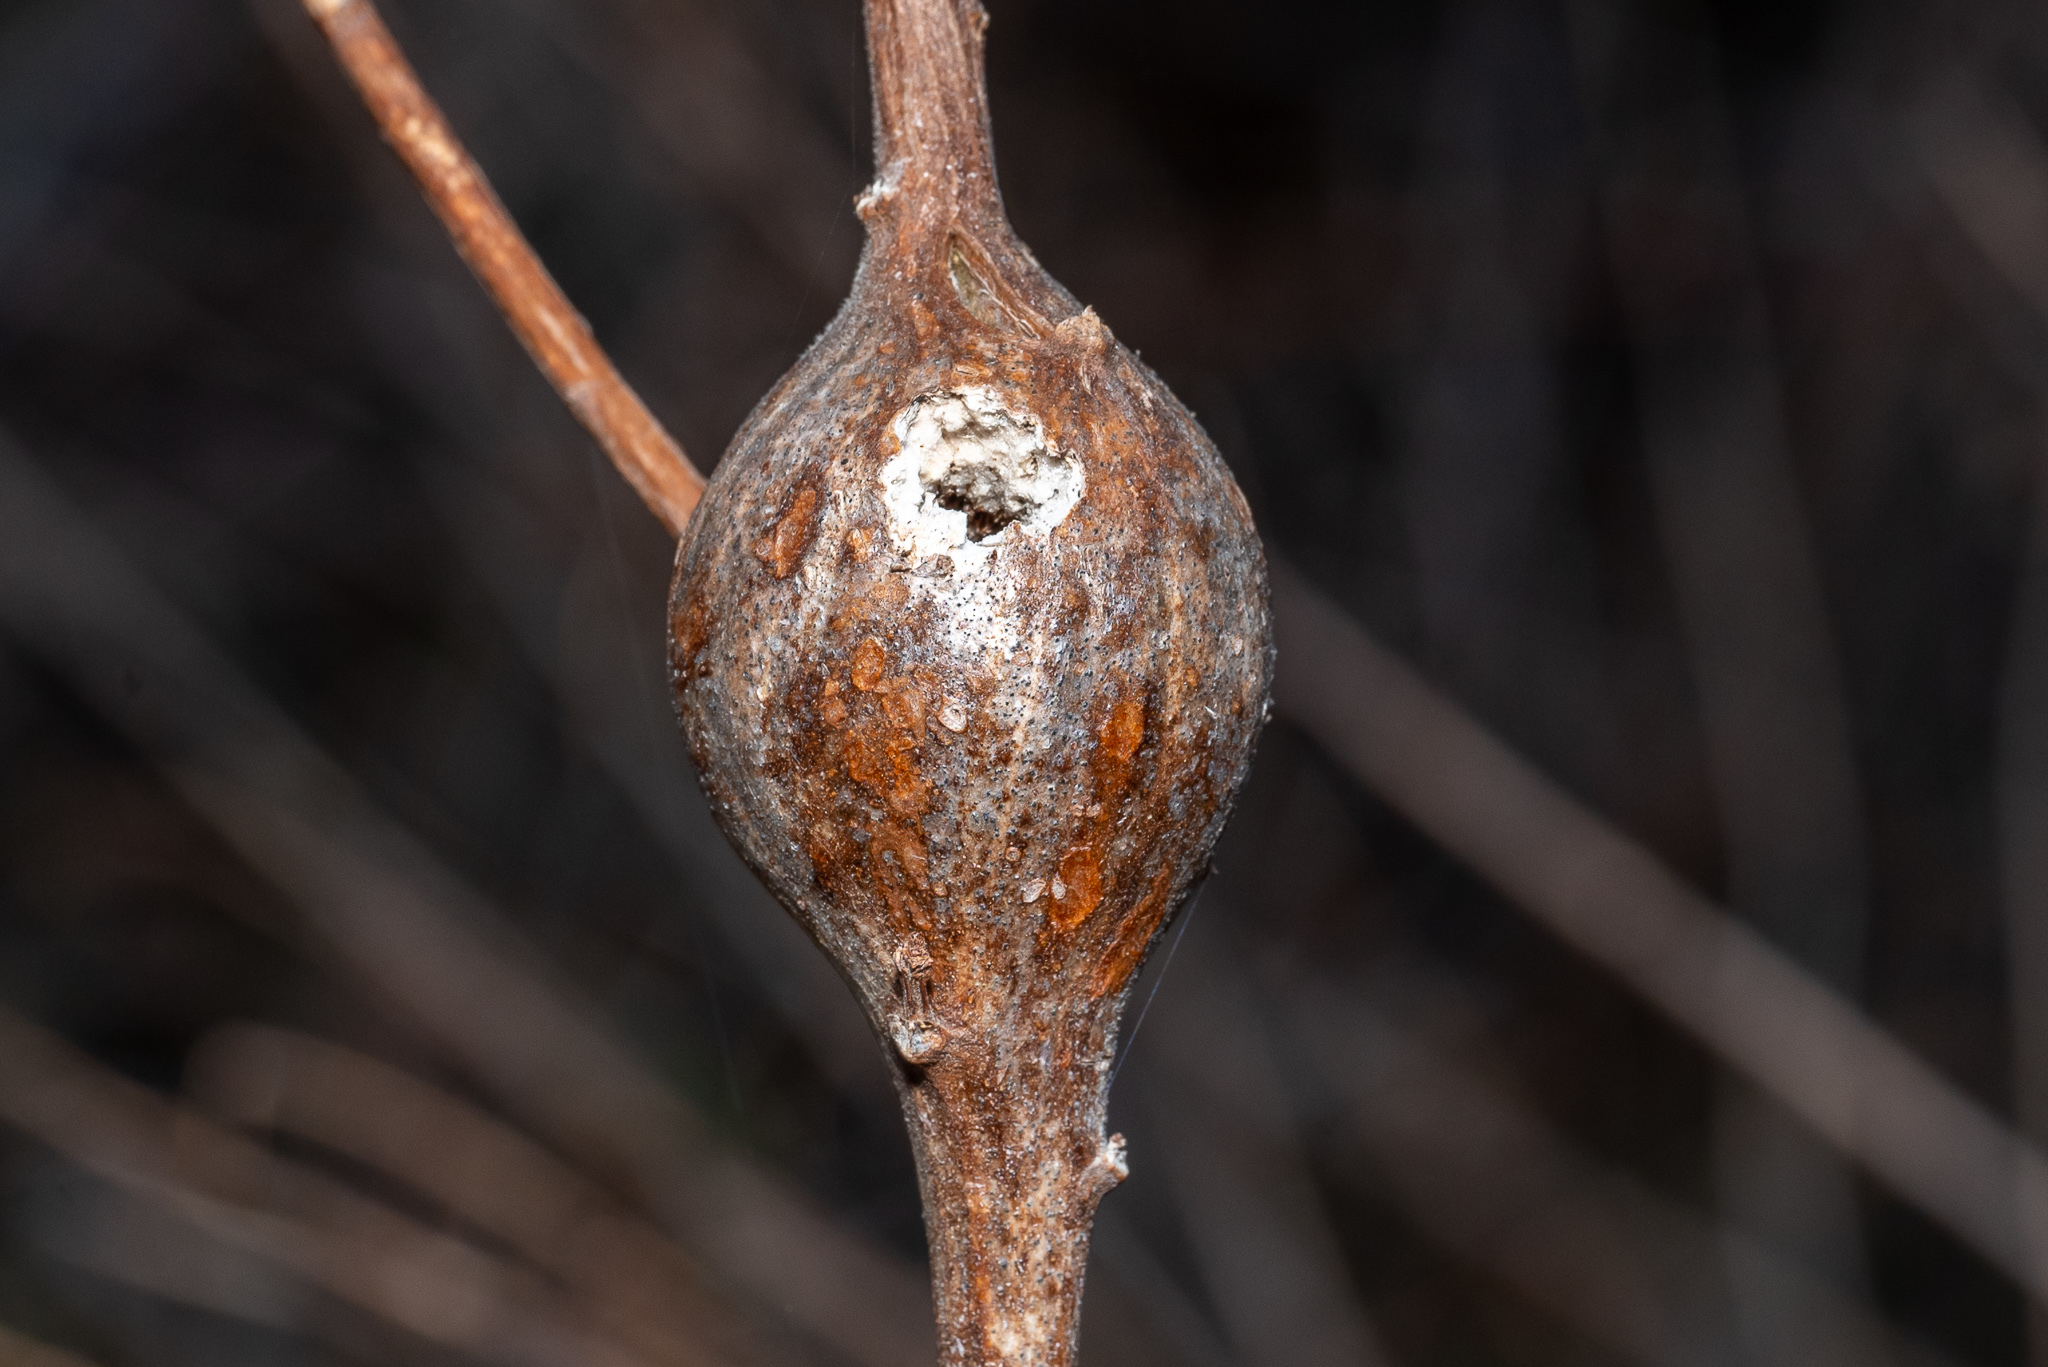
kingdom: Animalia
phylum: Arthropoda
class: Insecta
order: Diptera
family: Tephritidae
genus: Eurosta
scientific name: Eurosta solidaginis
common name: Goldenrod gall fly
